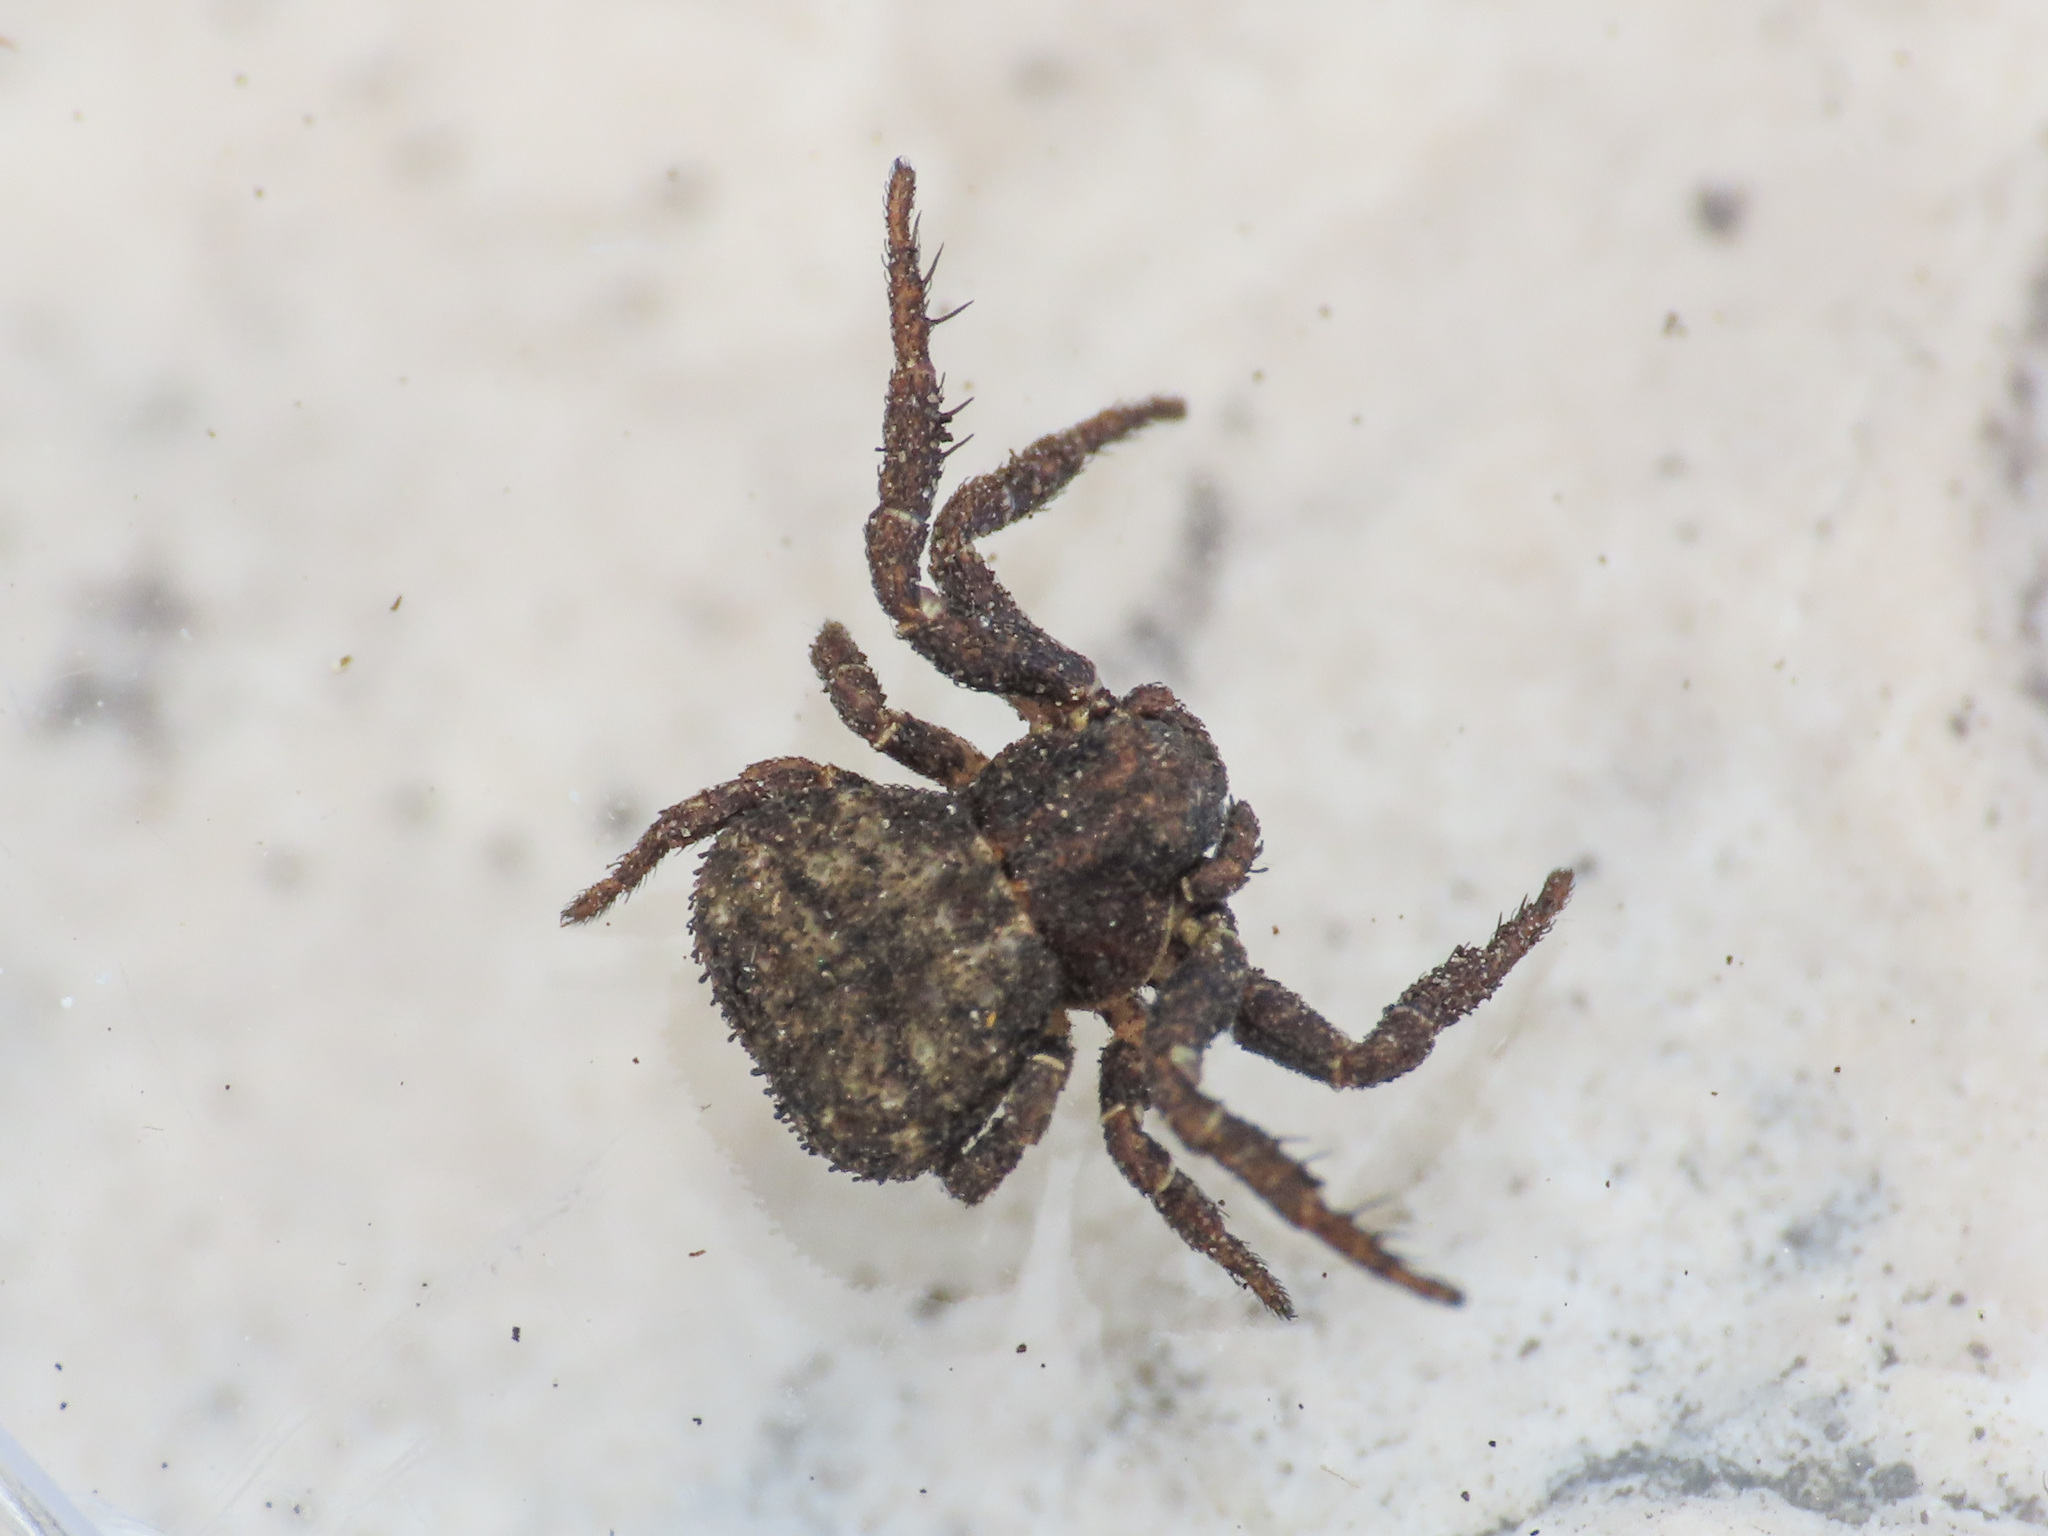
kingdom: Animalia
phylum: Arthropoda
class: Arachnida
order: Araneae
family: Thomisidae
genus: Ozyptila
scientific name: Ozyptila scabricula
